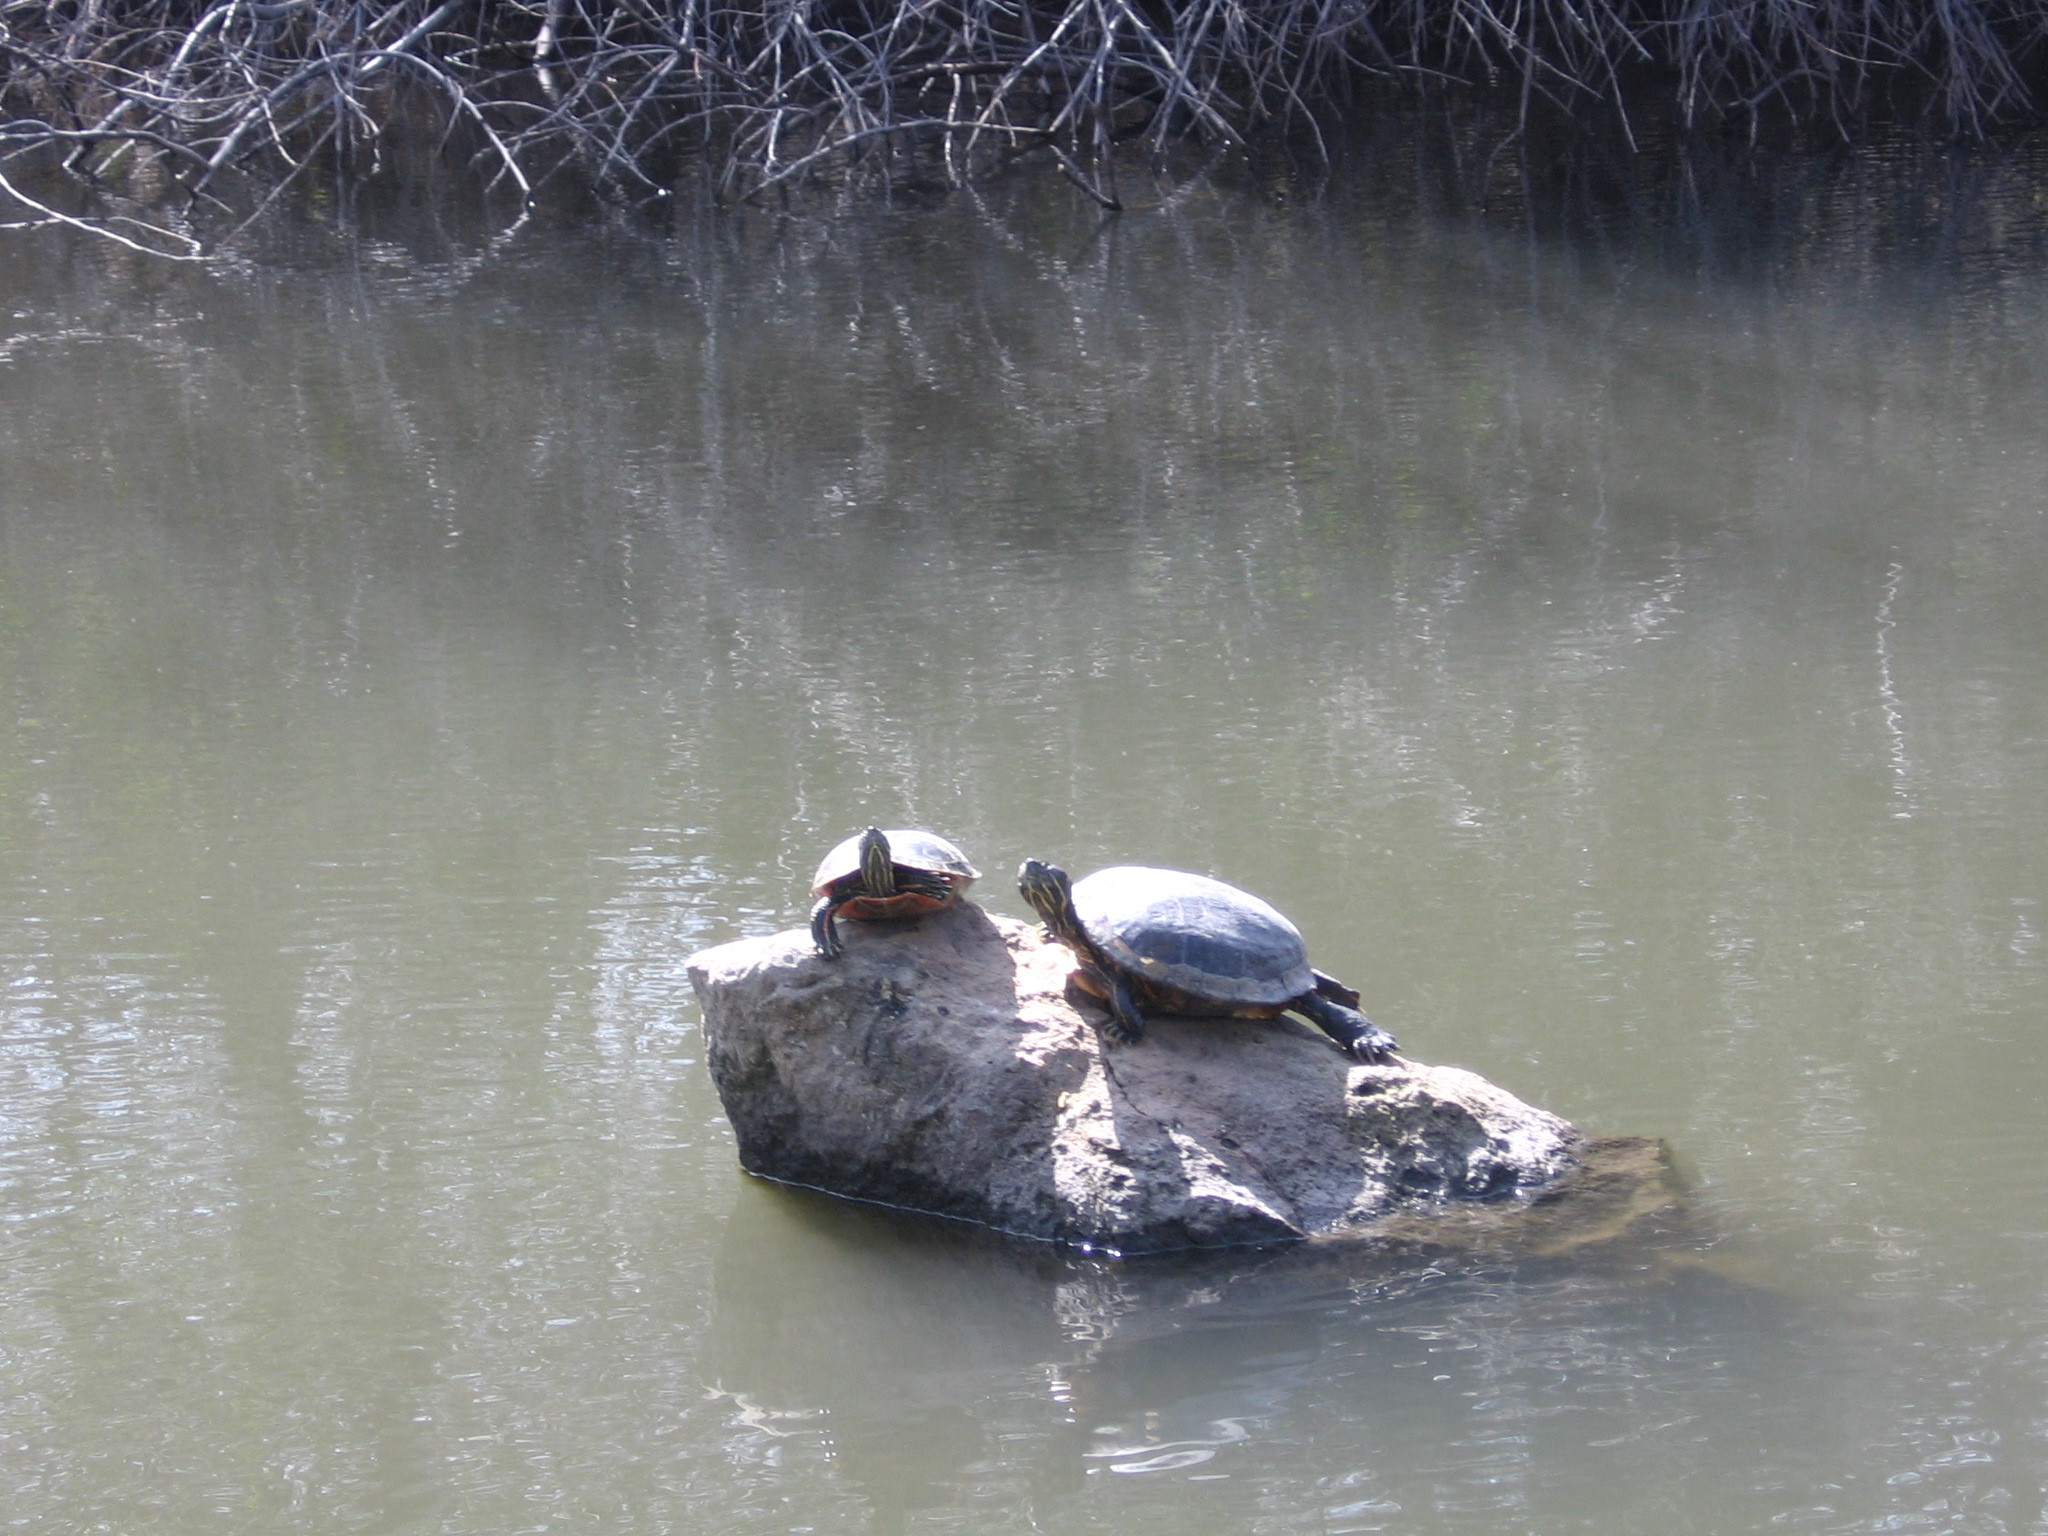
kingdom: Animalia
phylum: Chordata
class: Testudines
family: Emydidae
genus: Chrysemys
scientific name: Chrysemys picta
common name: Painted turtle
